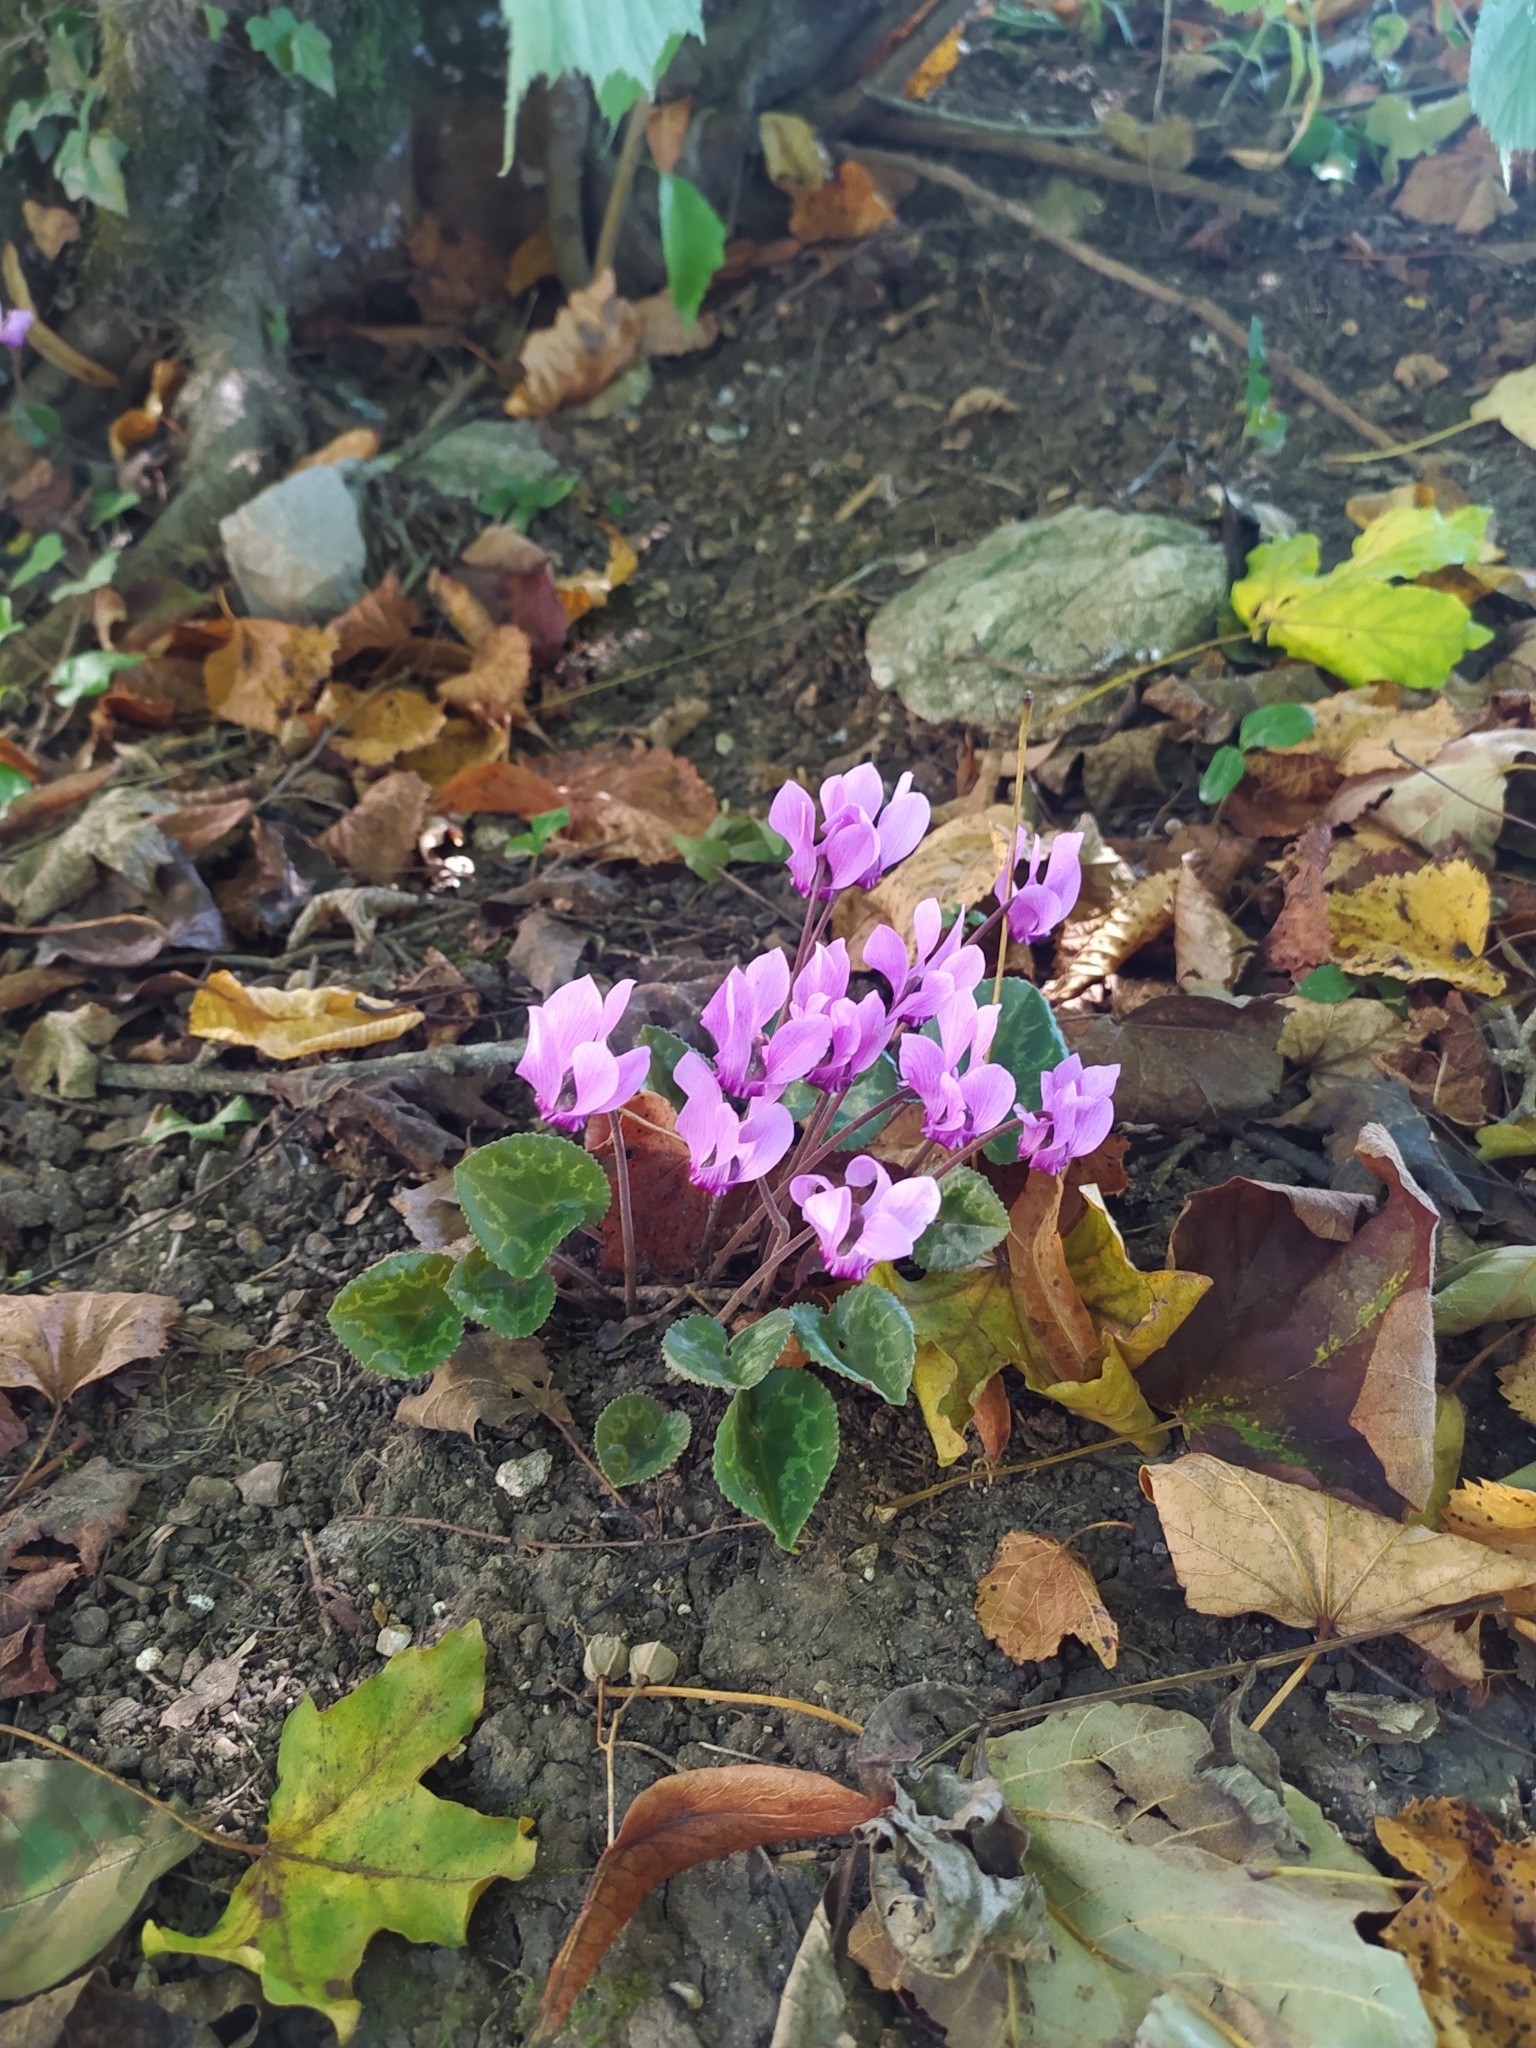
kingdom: Plantae
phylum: Tracheophyta
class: Magnoliopsida
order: Ericales
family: Primulaceae
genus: Cyclamen
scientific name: Cyclamen purpurascens
